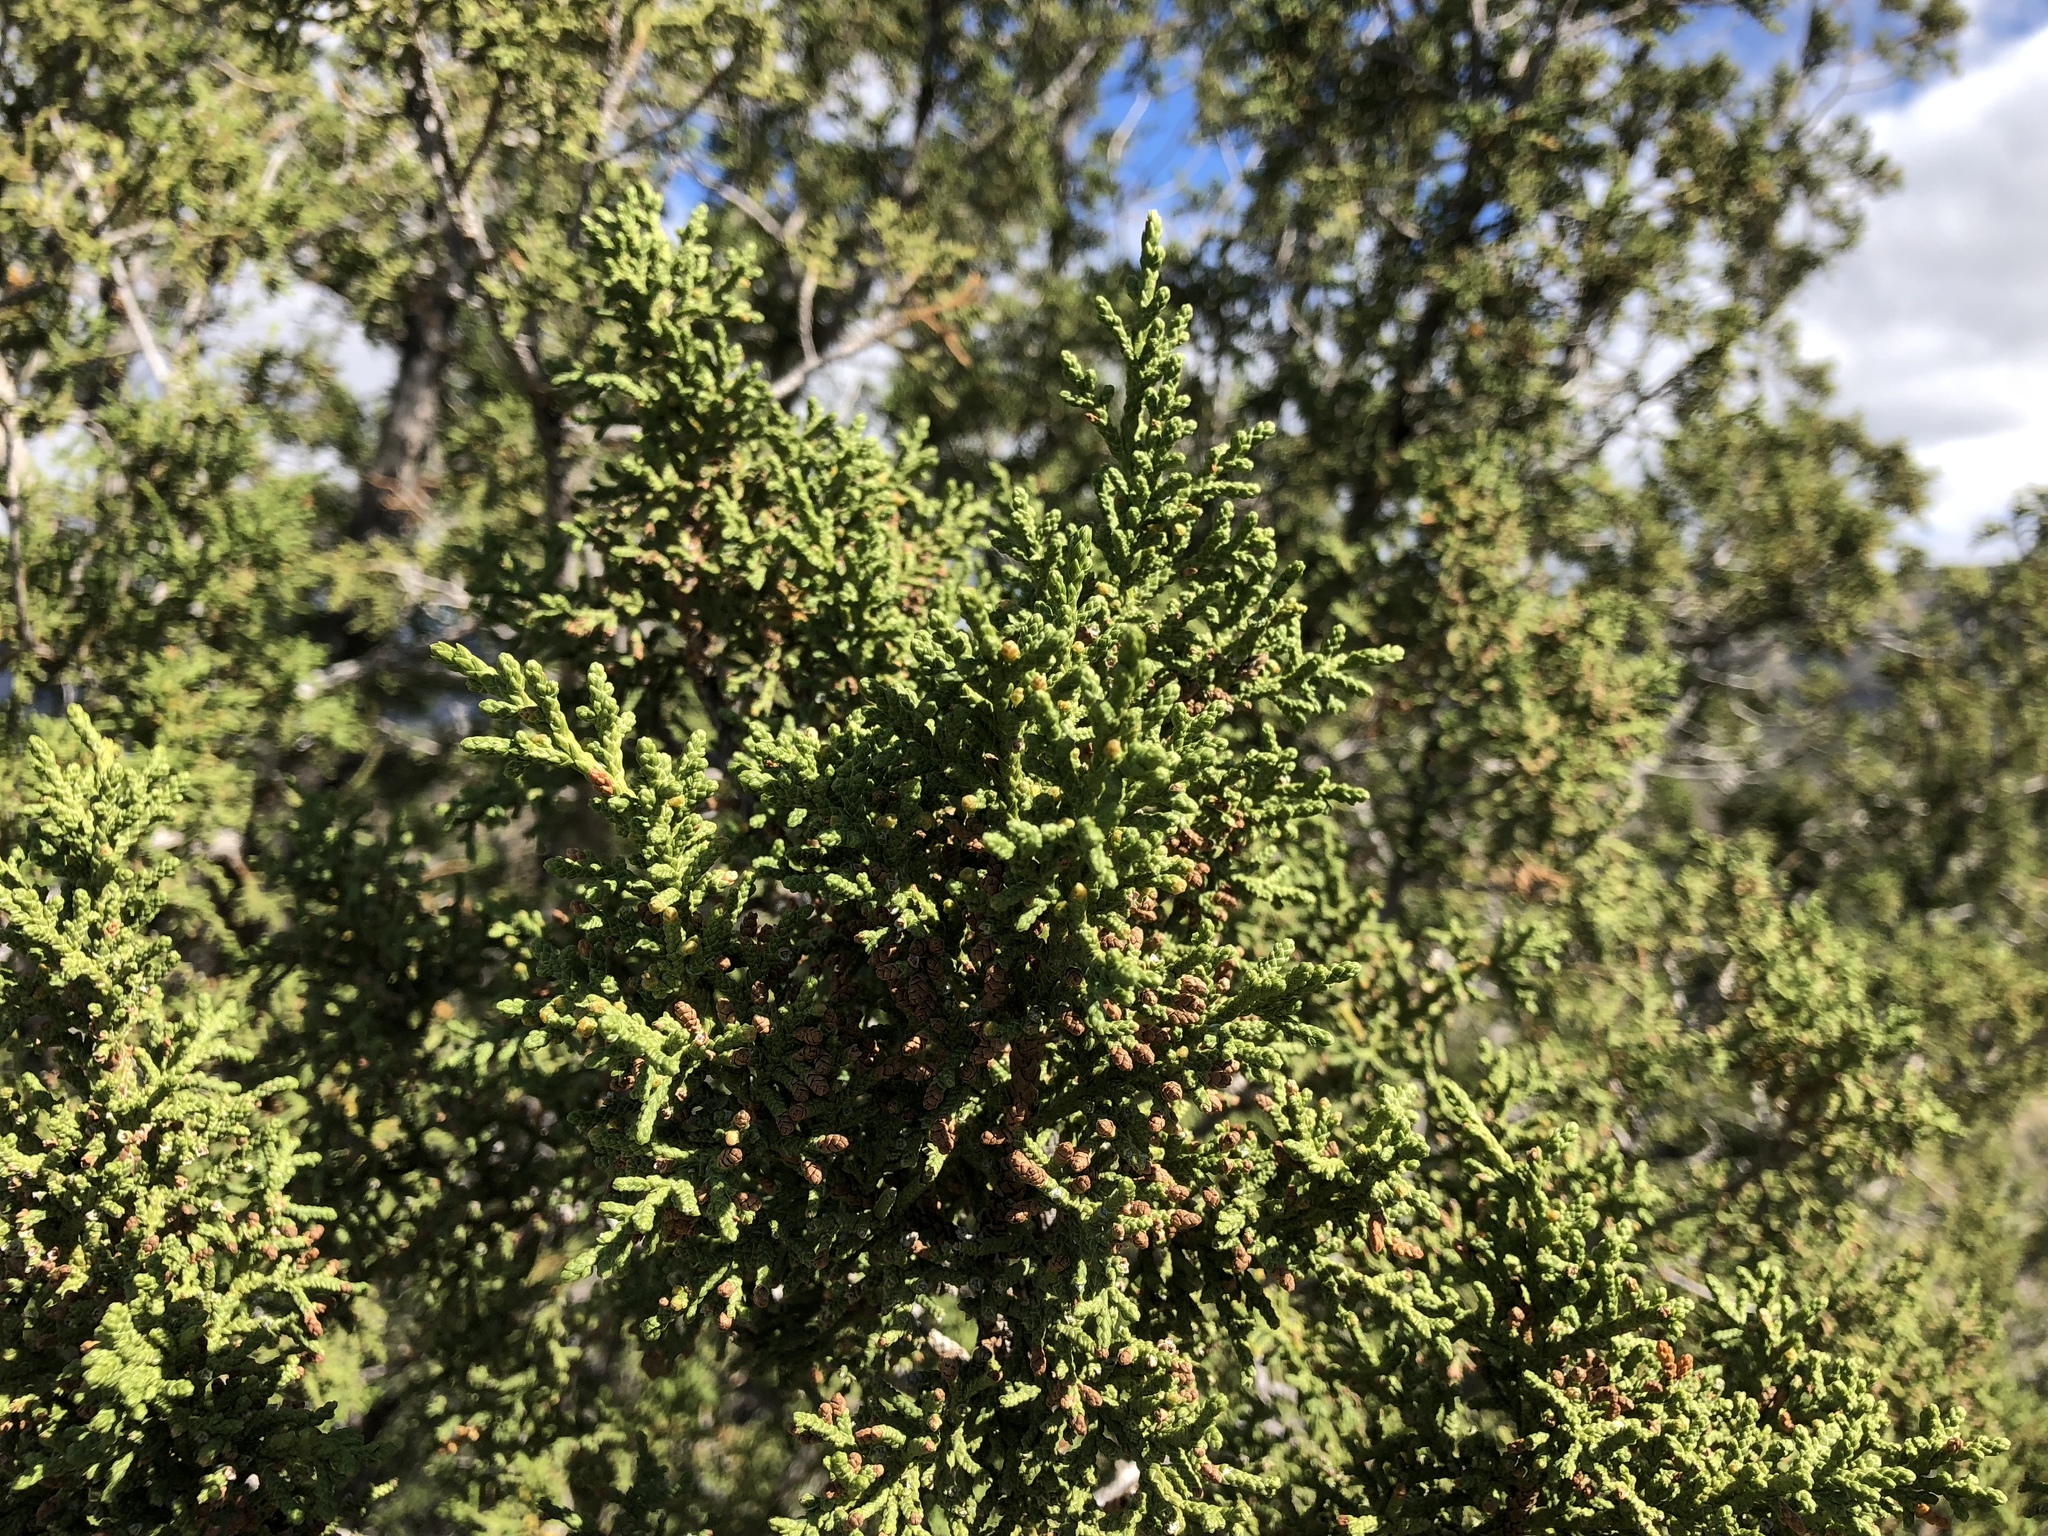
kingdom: Plantae
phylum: Tracheophyta
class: Pinopsida
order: Pinales
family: Cupressaceae
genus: Juniperus
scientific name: Juniperus monosperma
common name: One-seed juniper
